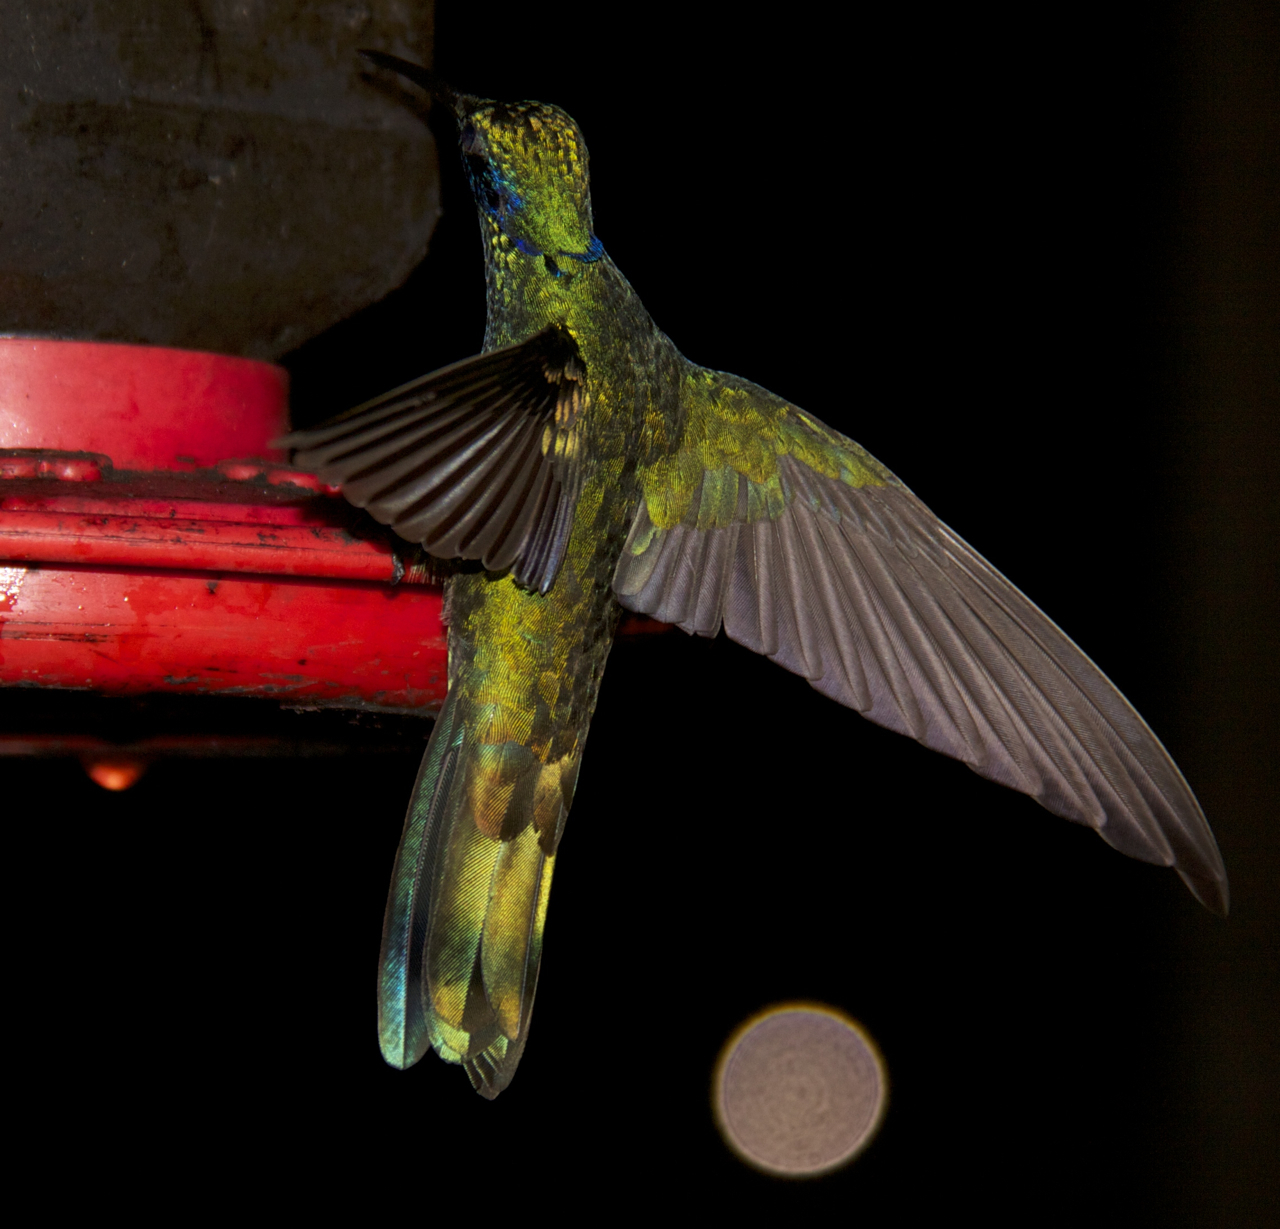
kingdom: Animalia
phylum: Chordata
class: Aves
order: Apodiformes
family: Trochilidae
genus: Colibri
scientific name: Colibri coruscans
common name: Sparkling violetear
